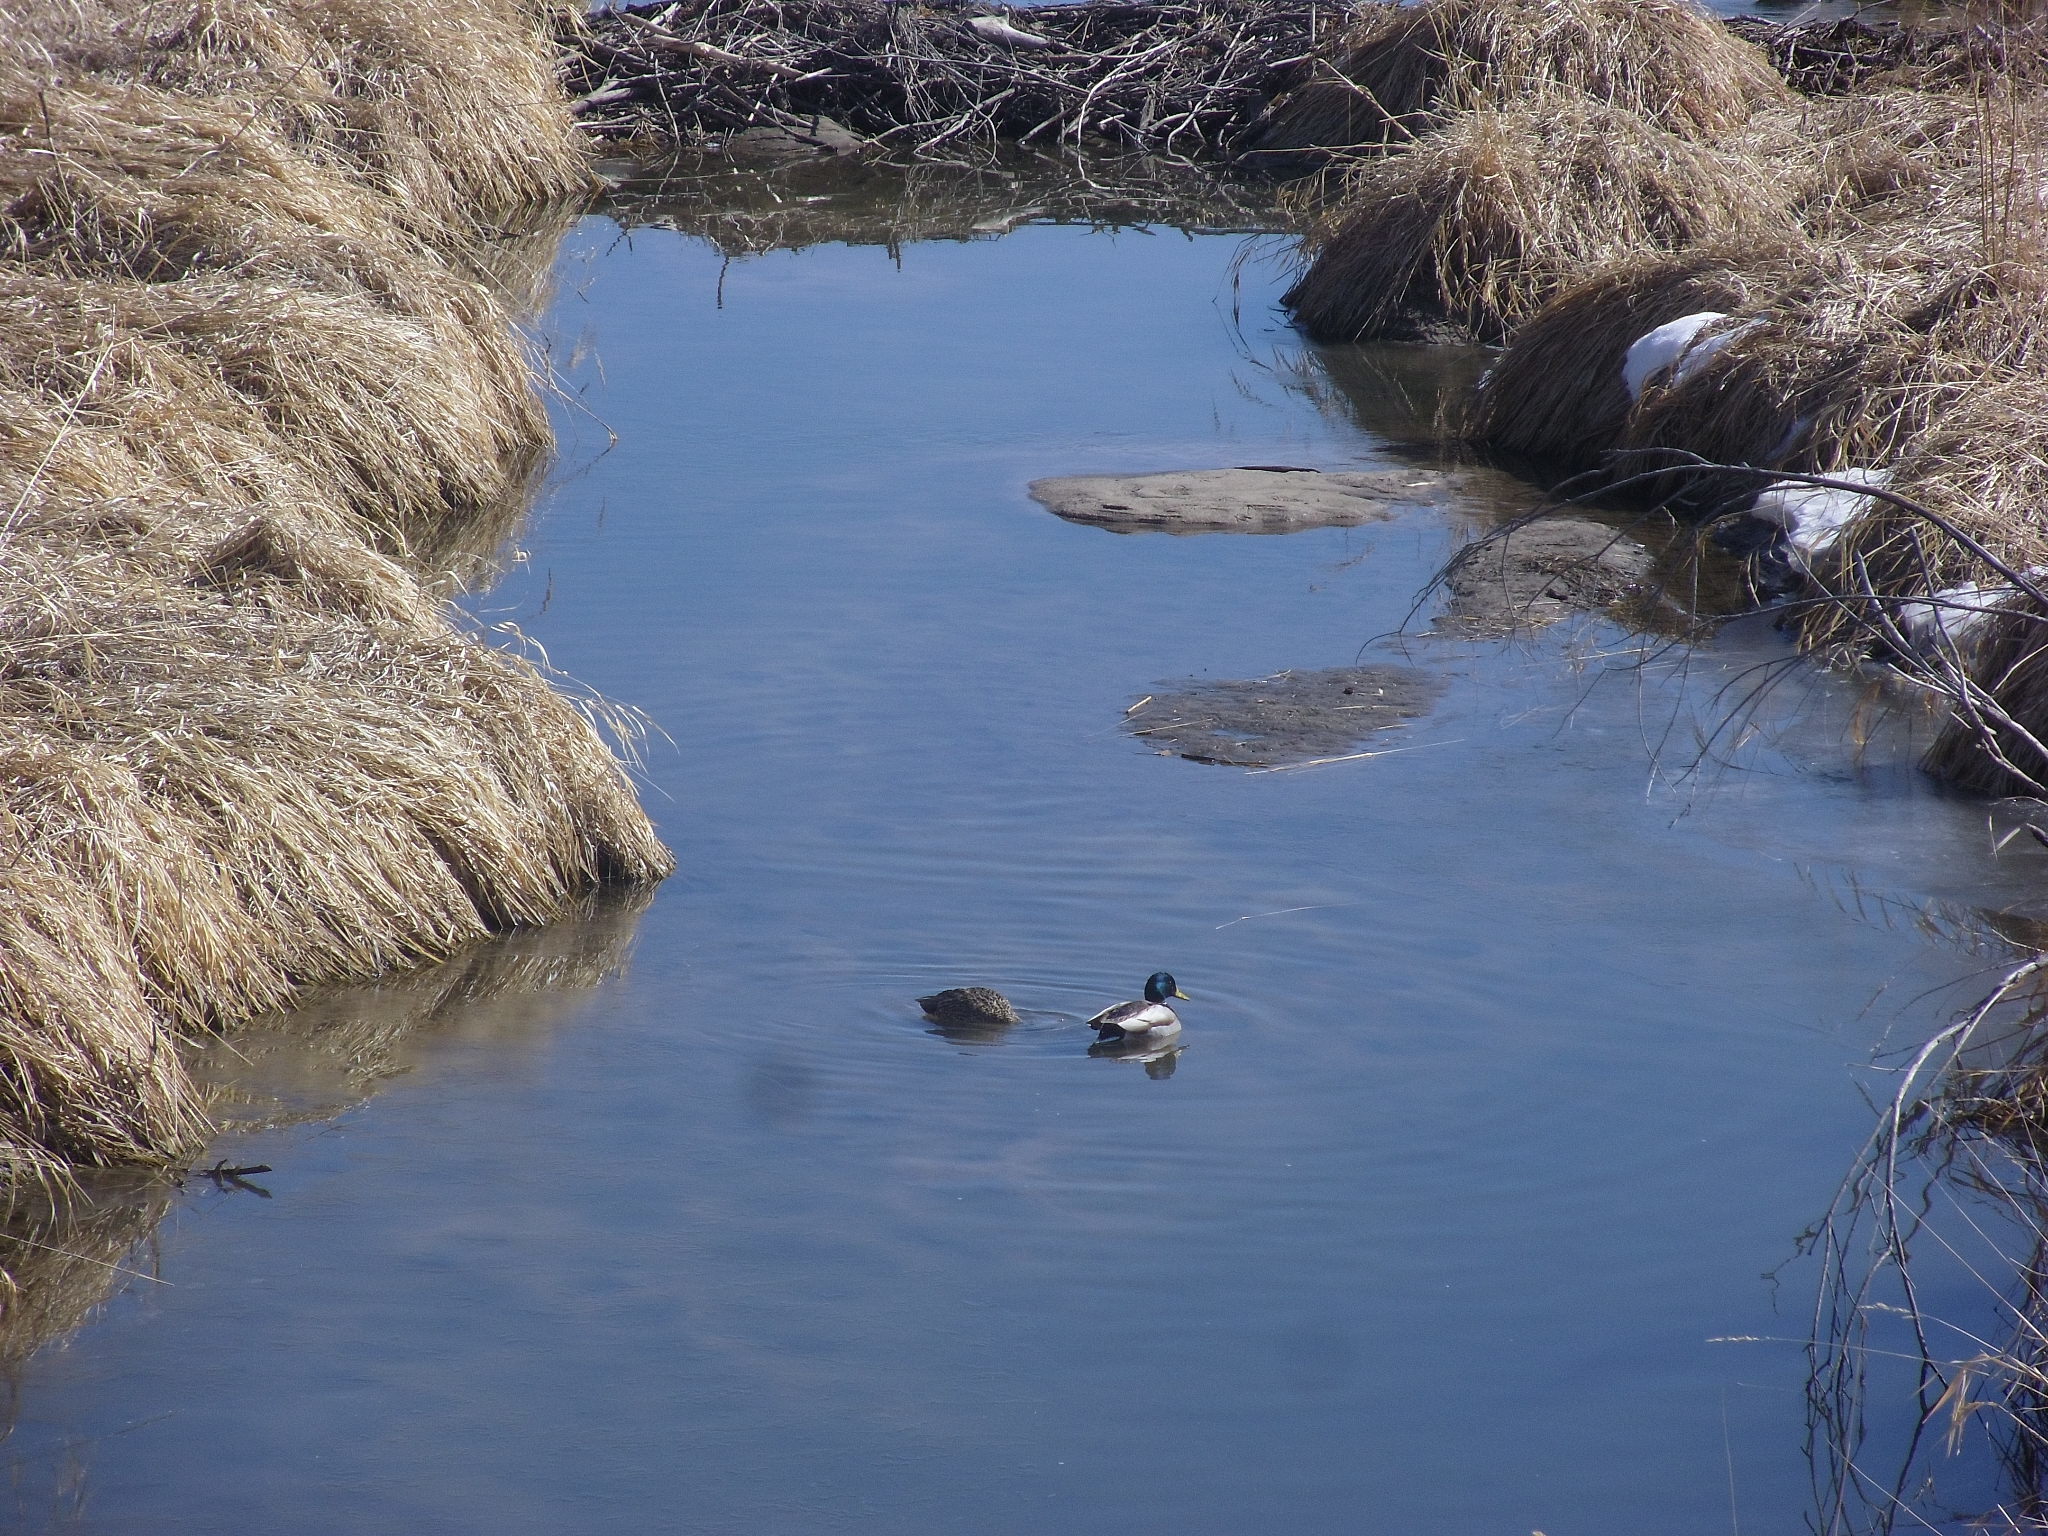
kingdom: Animalia
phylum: Chordata
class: Aves
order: Anseriformes
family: Anatidae
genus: Anas
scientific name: Anas platyrhynchos
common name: Mallard
